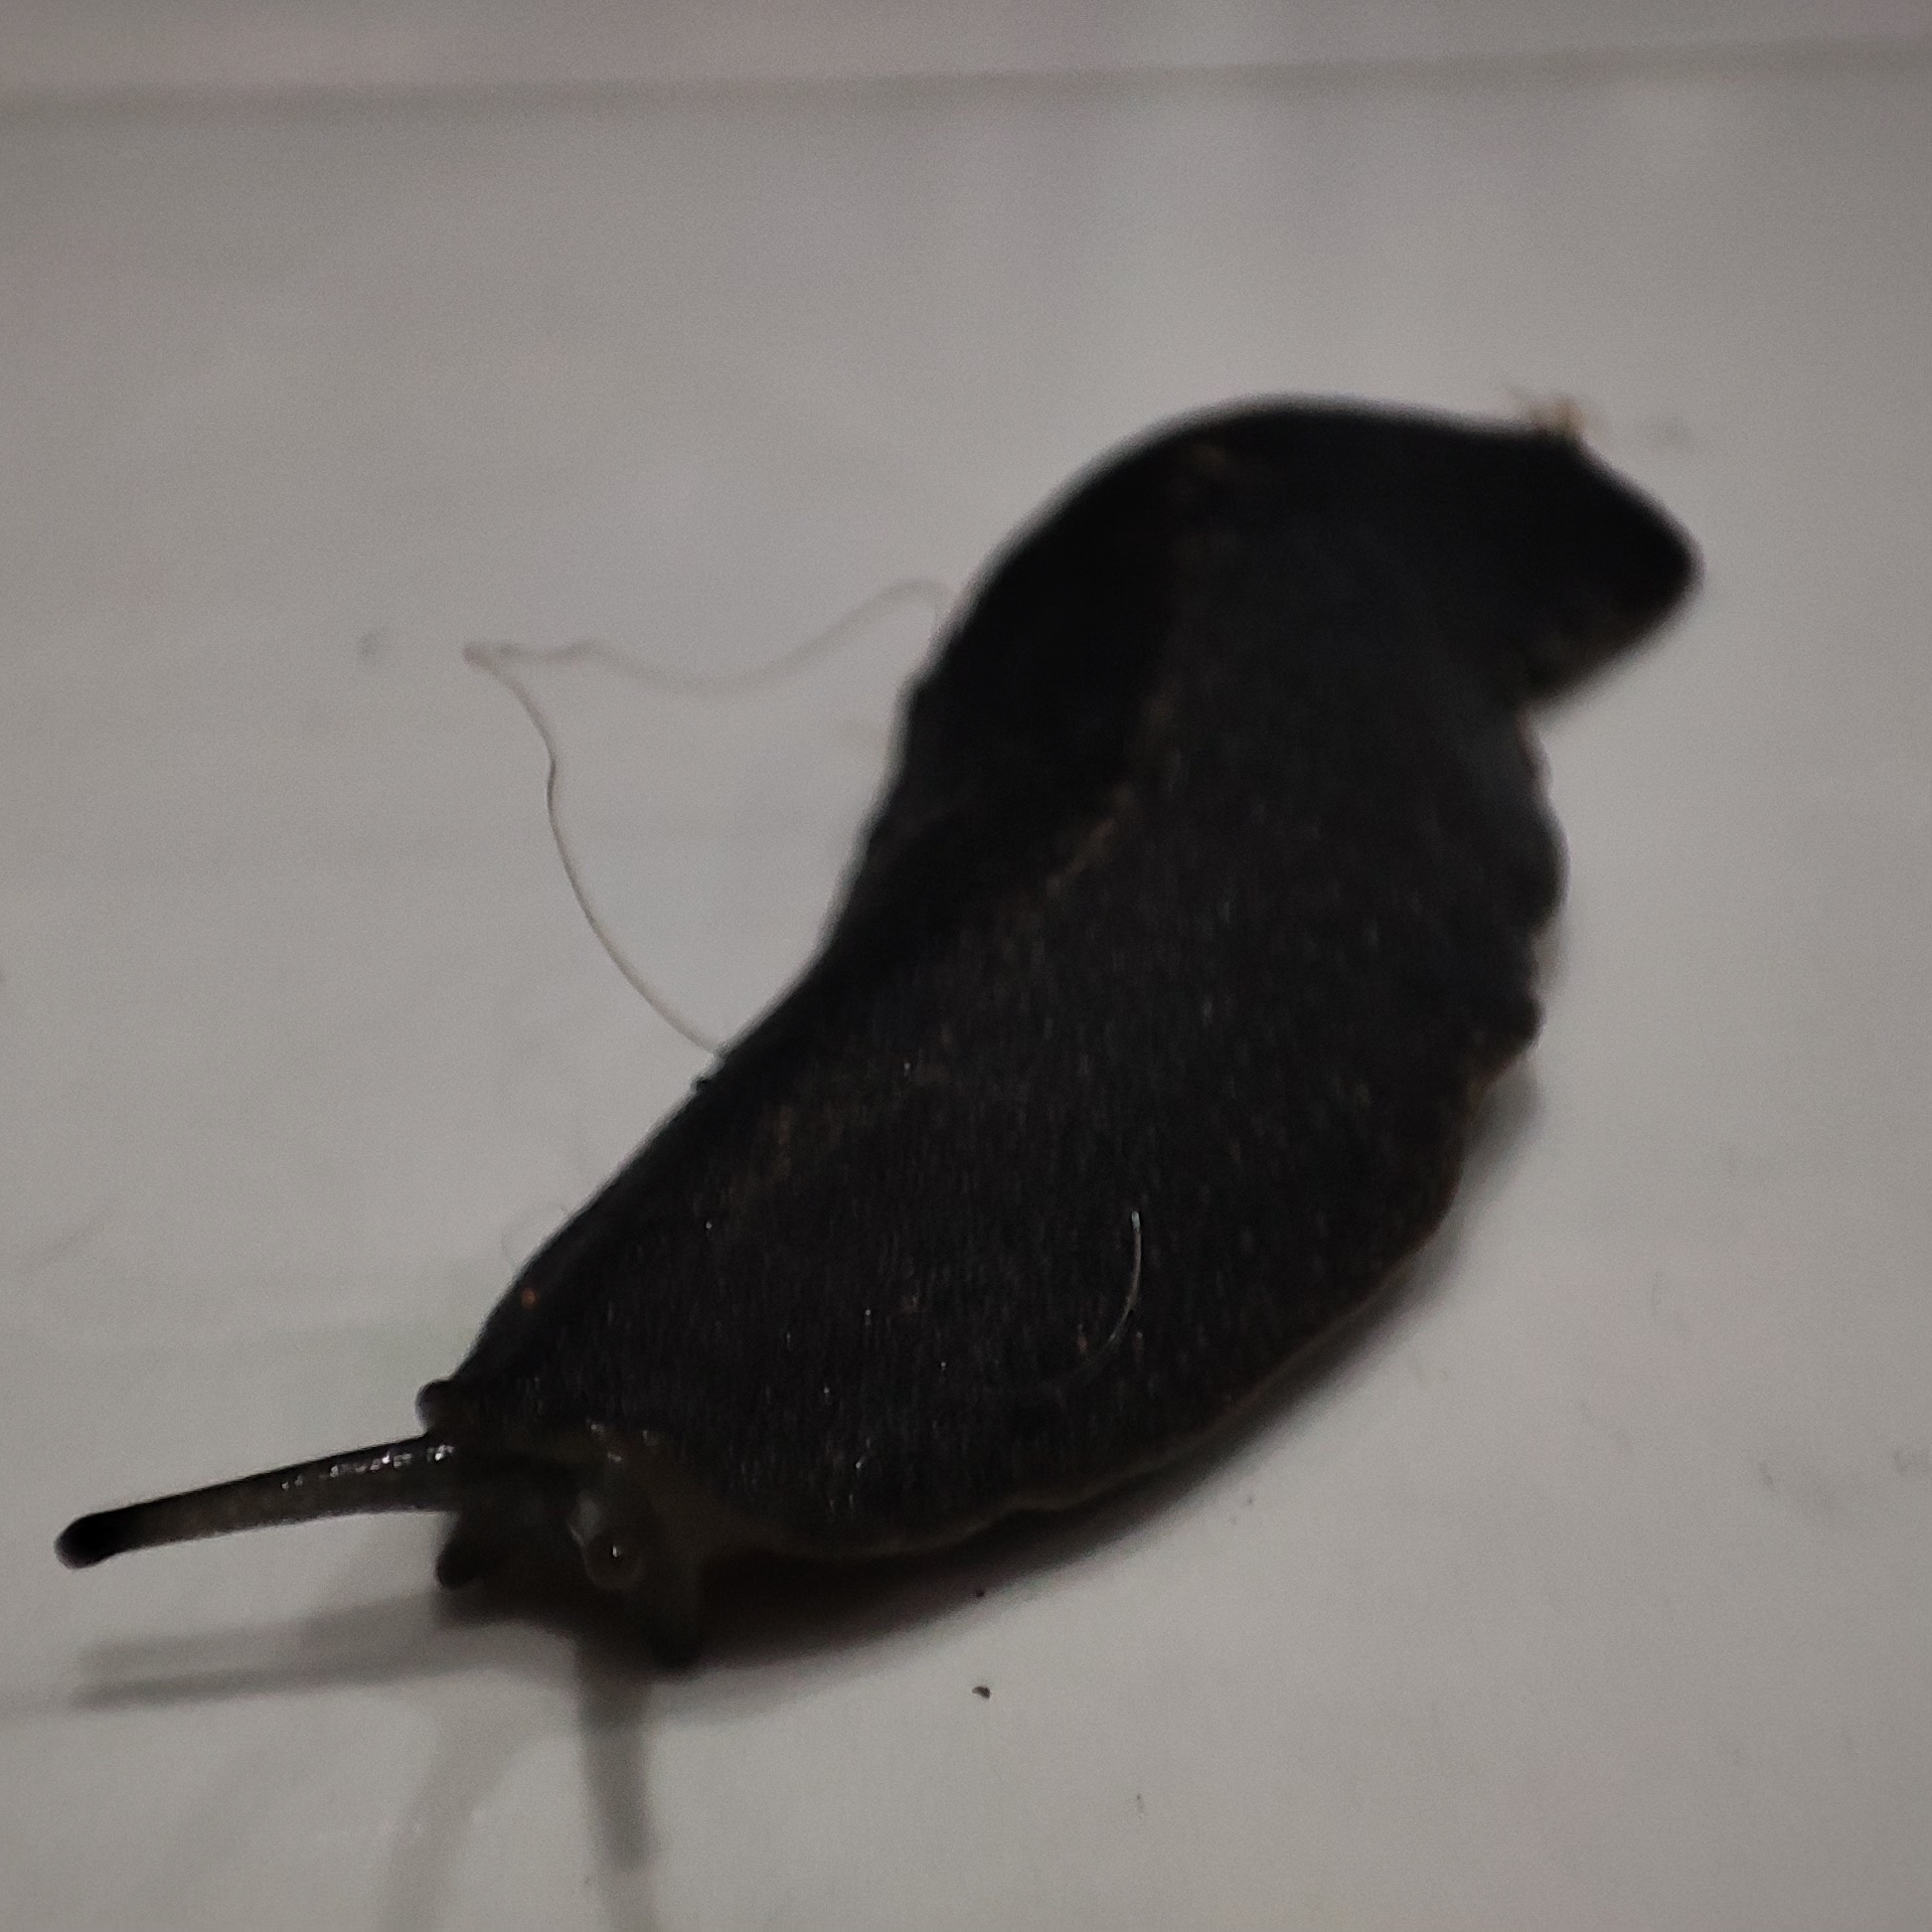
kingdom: Animalia
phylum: Mollusca
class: Gastropoda
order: Systellommatophora
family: Veronicellidae
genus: Laevicaulis
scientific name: Laevicaulis alte
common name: Tropical leatherleaf
